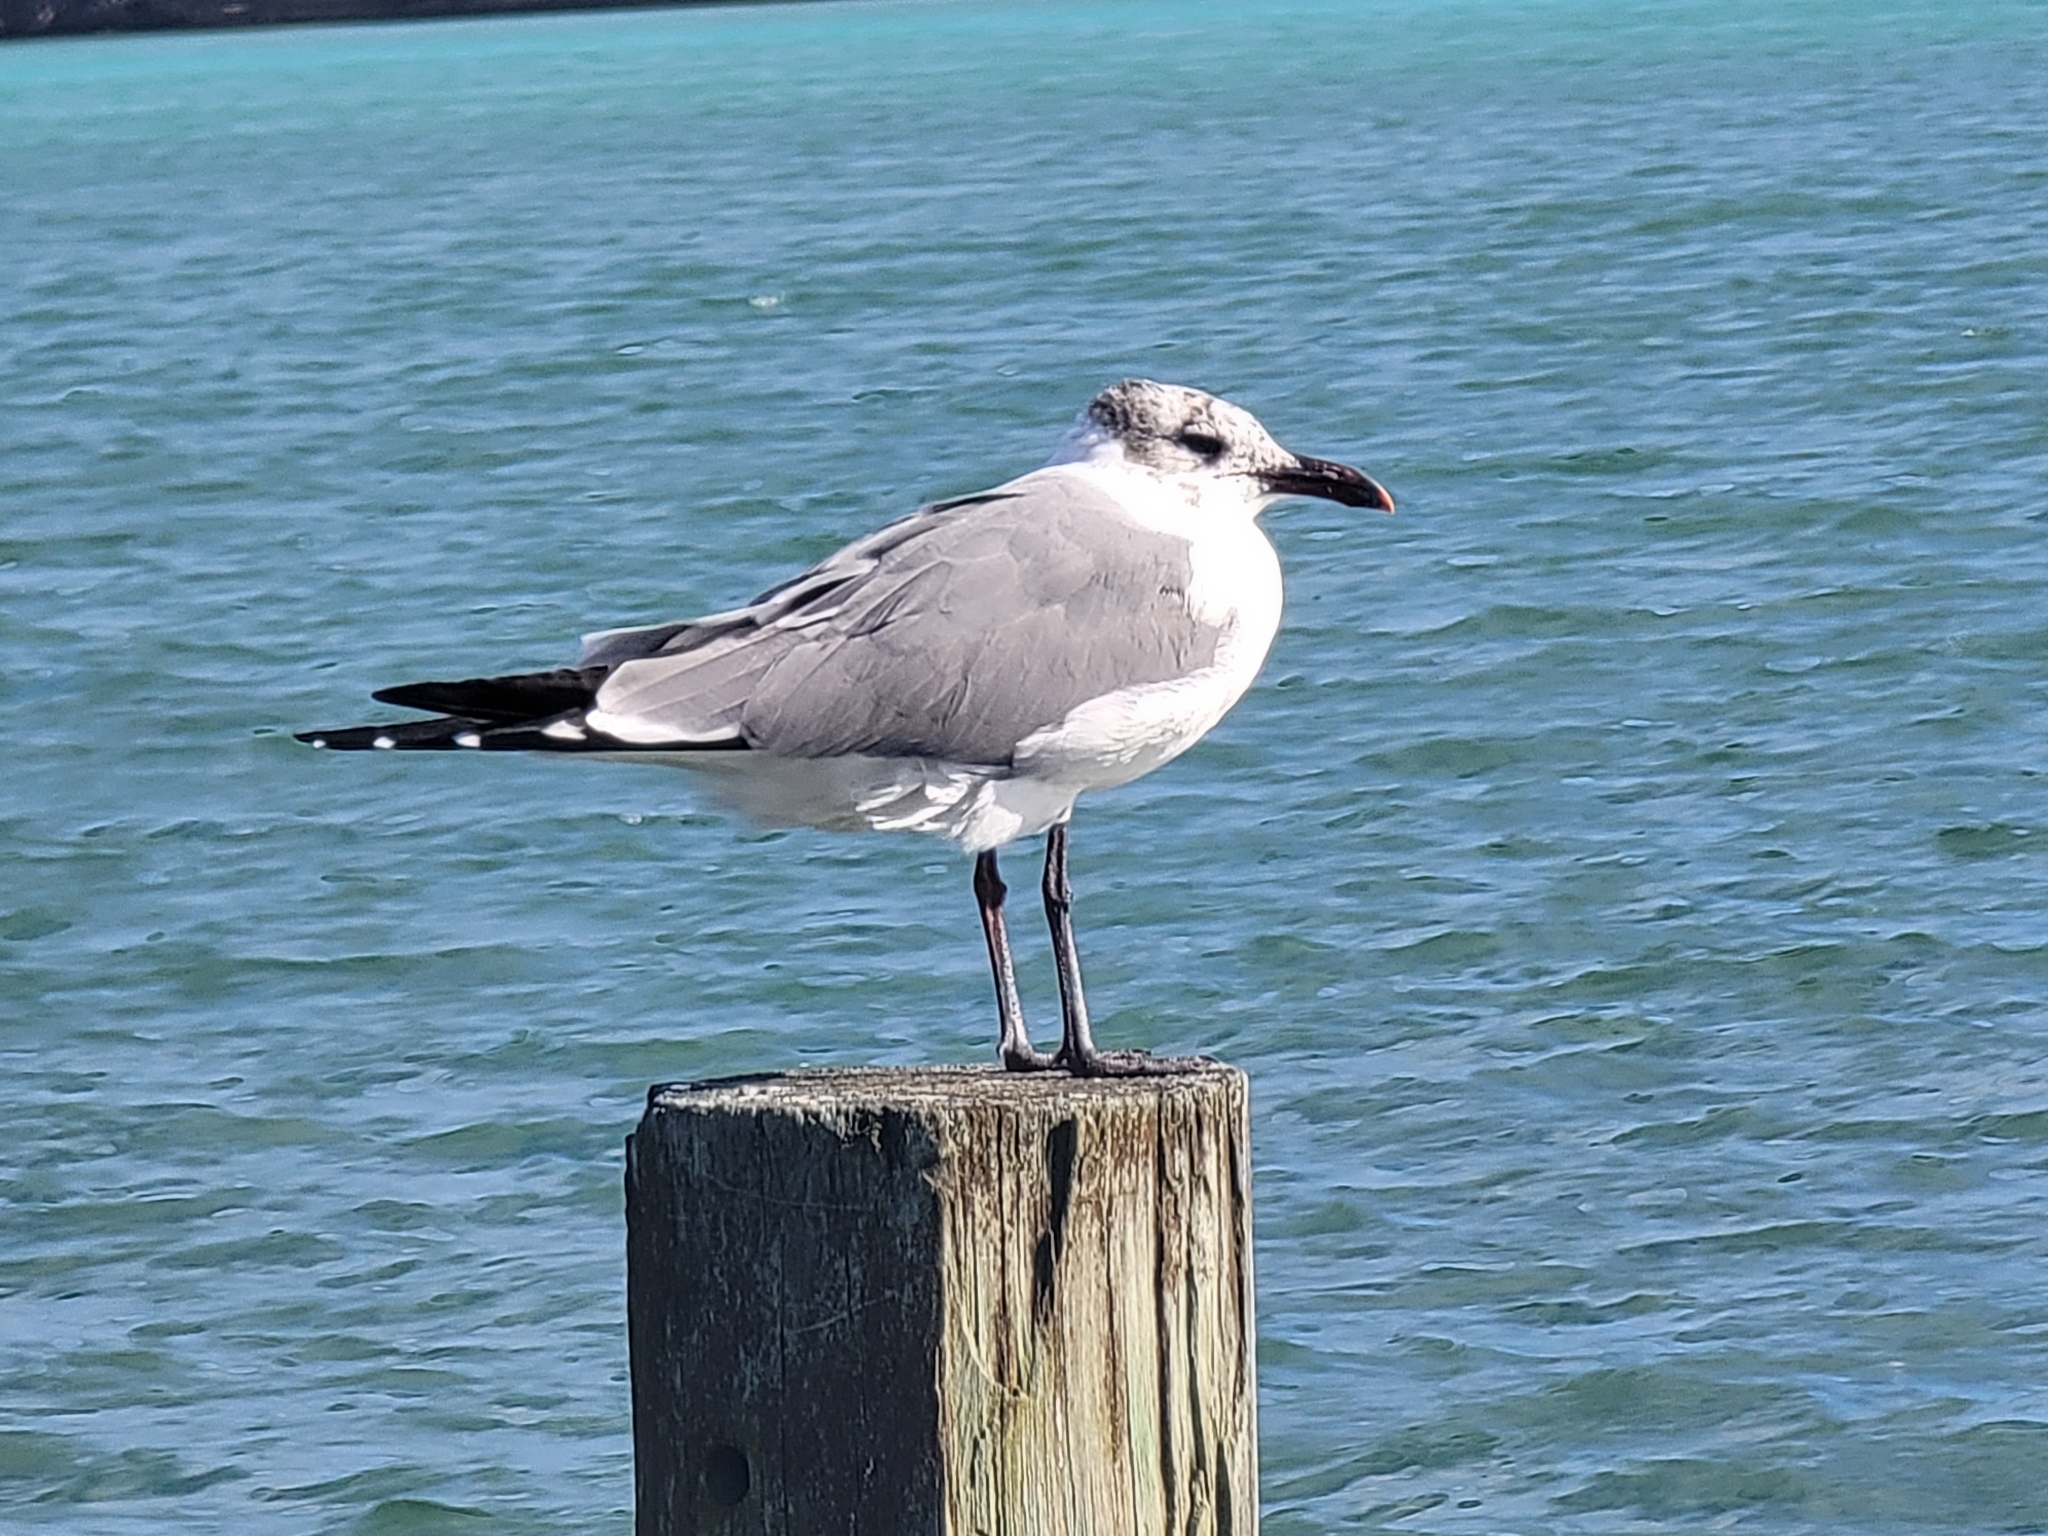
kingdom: Animalia
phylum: Chordata
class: Aves
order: Charadriiformes
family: Laridae
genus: Leucophaeus
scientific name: Leucophaeus atricilla
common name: Laughing gull
